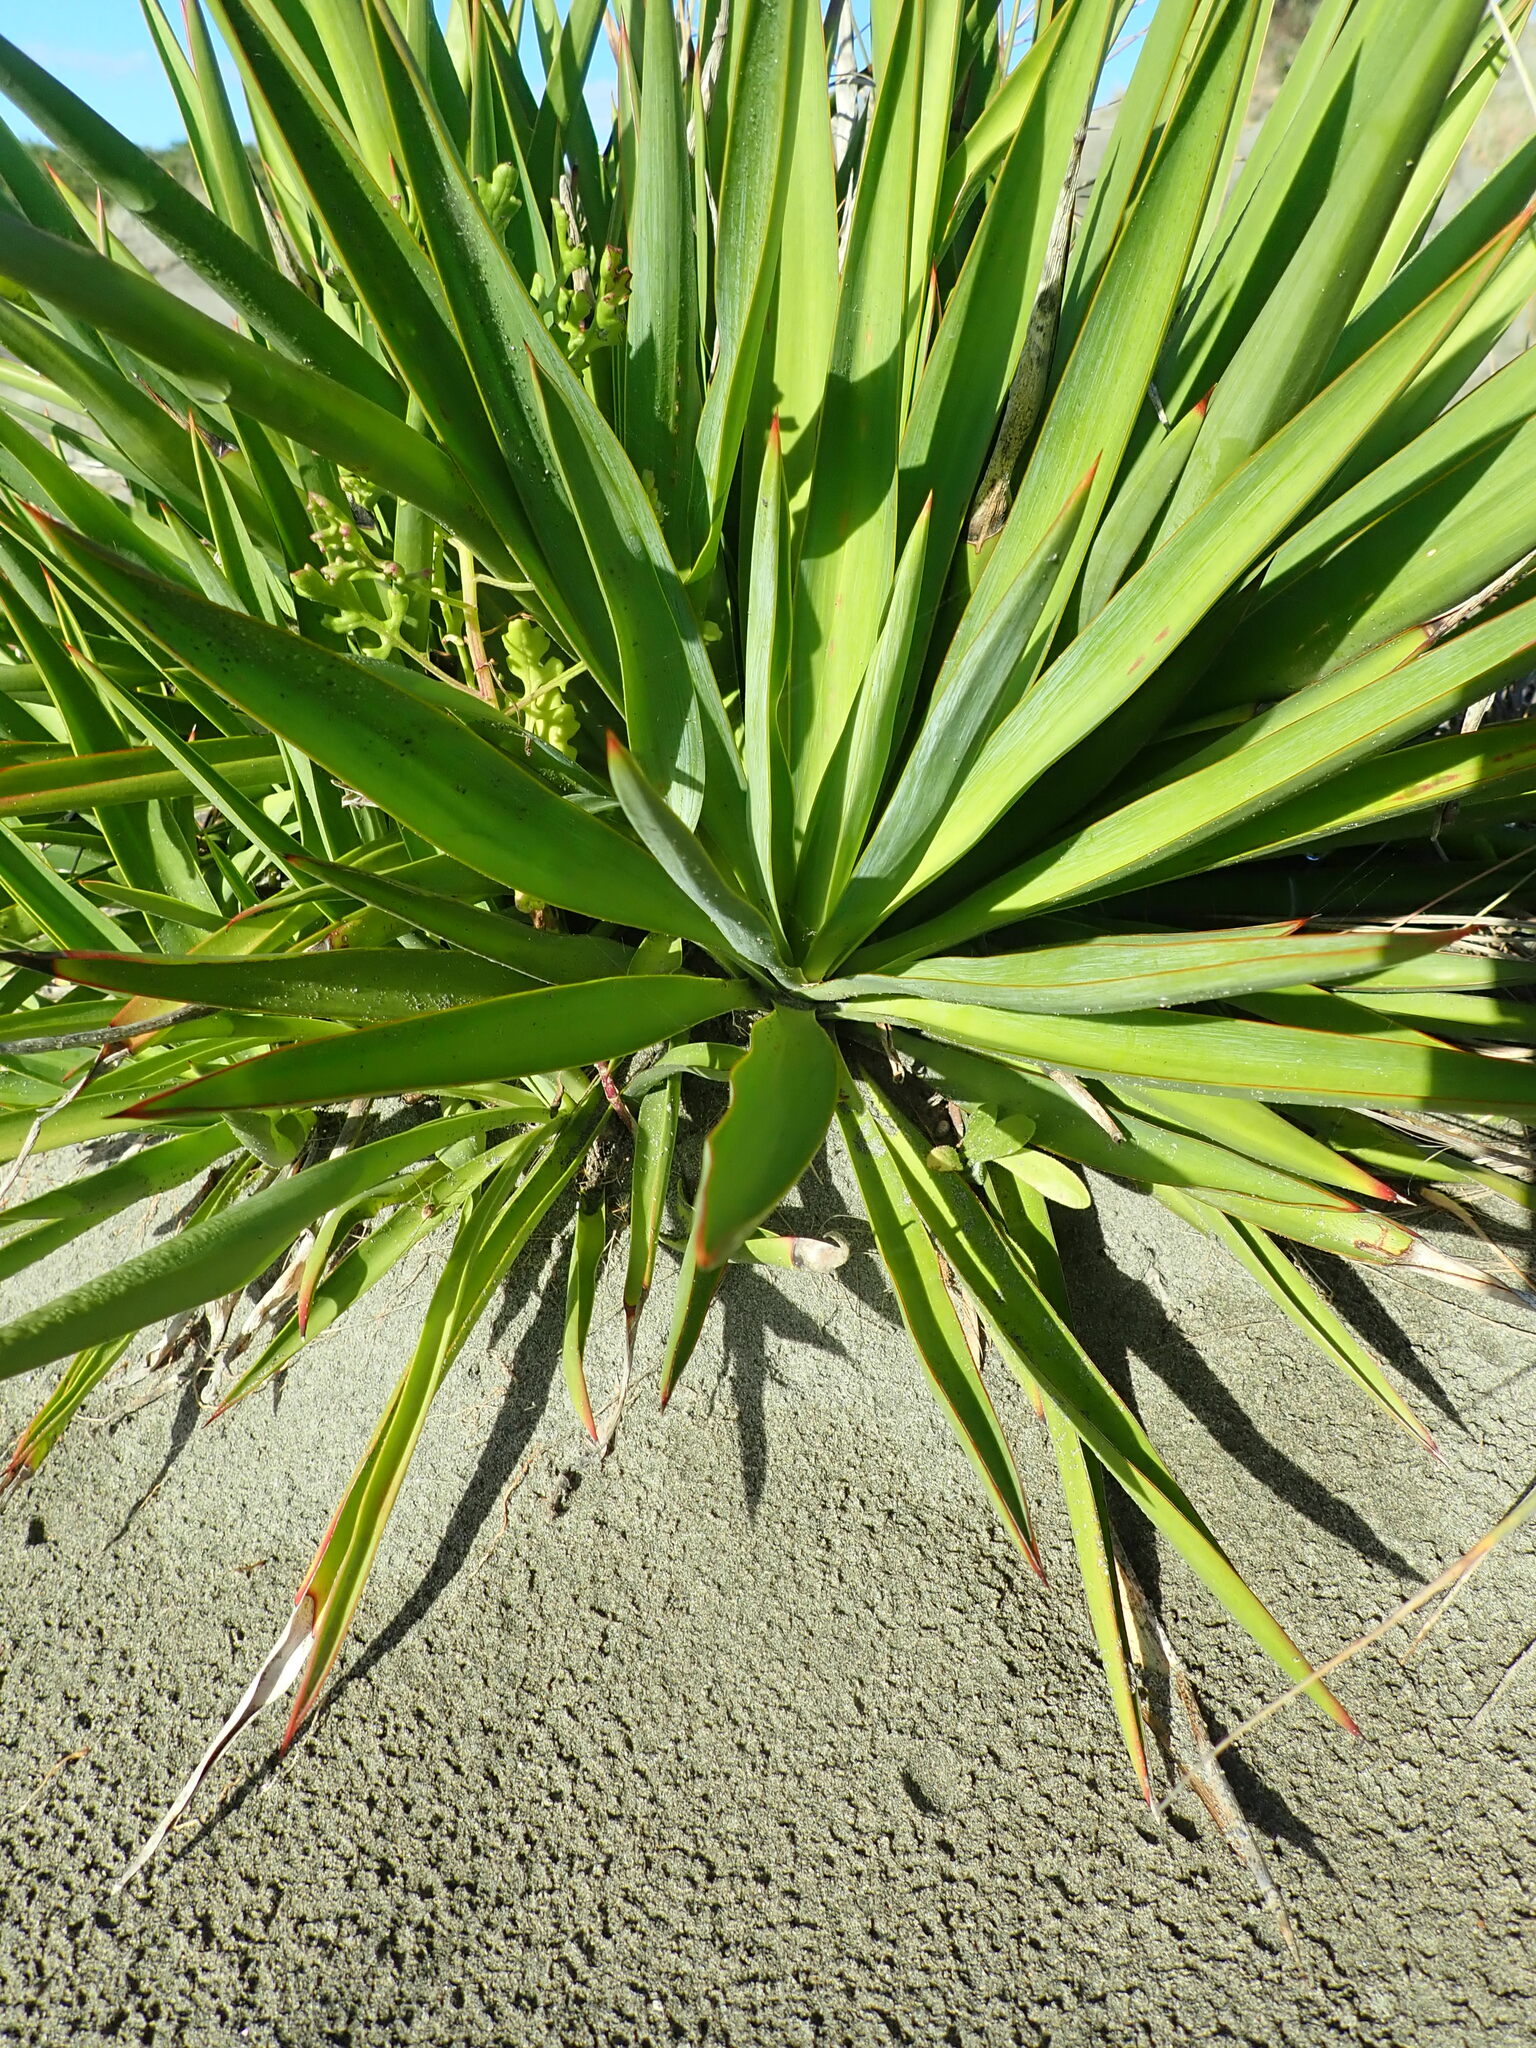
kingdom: Plantae
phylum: Tracheophyta
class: Liliopsida
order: Asparagales
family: Asparagaceae
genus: Yucca
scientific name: Yucca gloriosa
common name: Spanish-dagger
